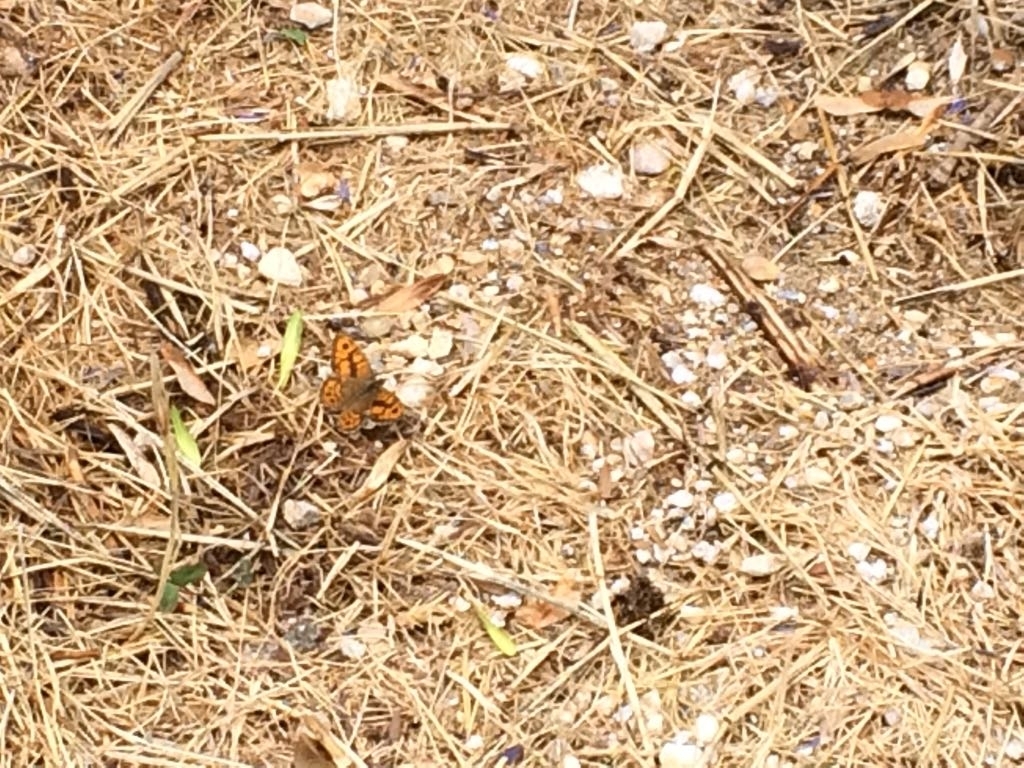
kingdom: Animalia
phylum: Arthropoda
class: Insecta
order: Lepidoptera
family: Nymphalidae
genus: Pararge
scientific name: Pararge Lasiommata megera
